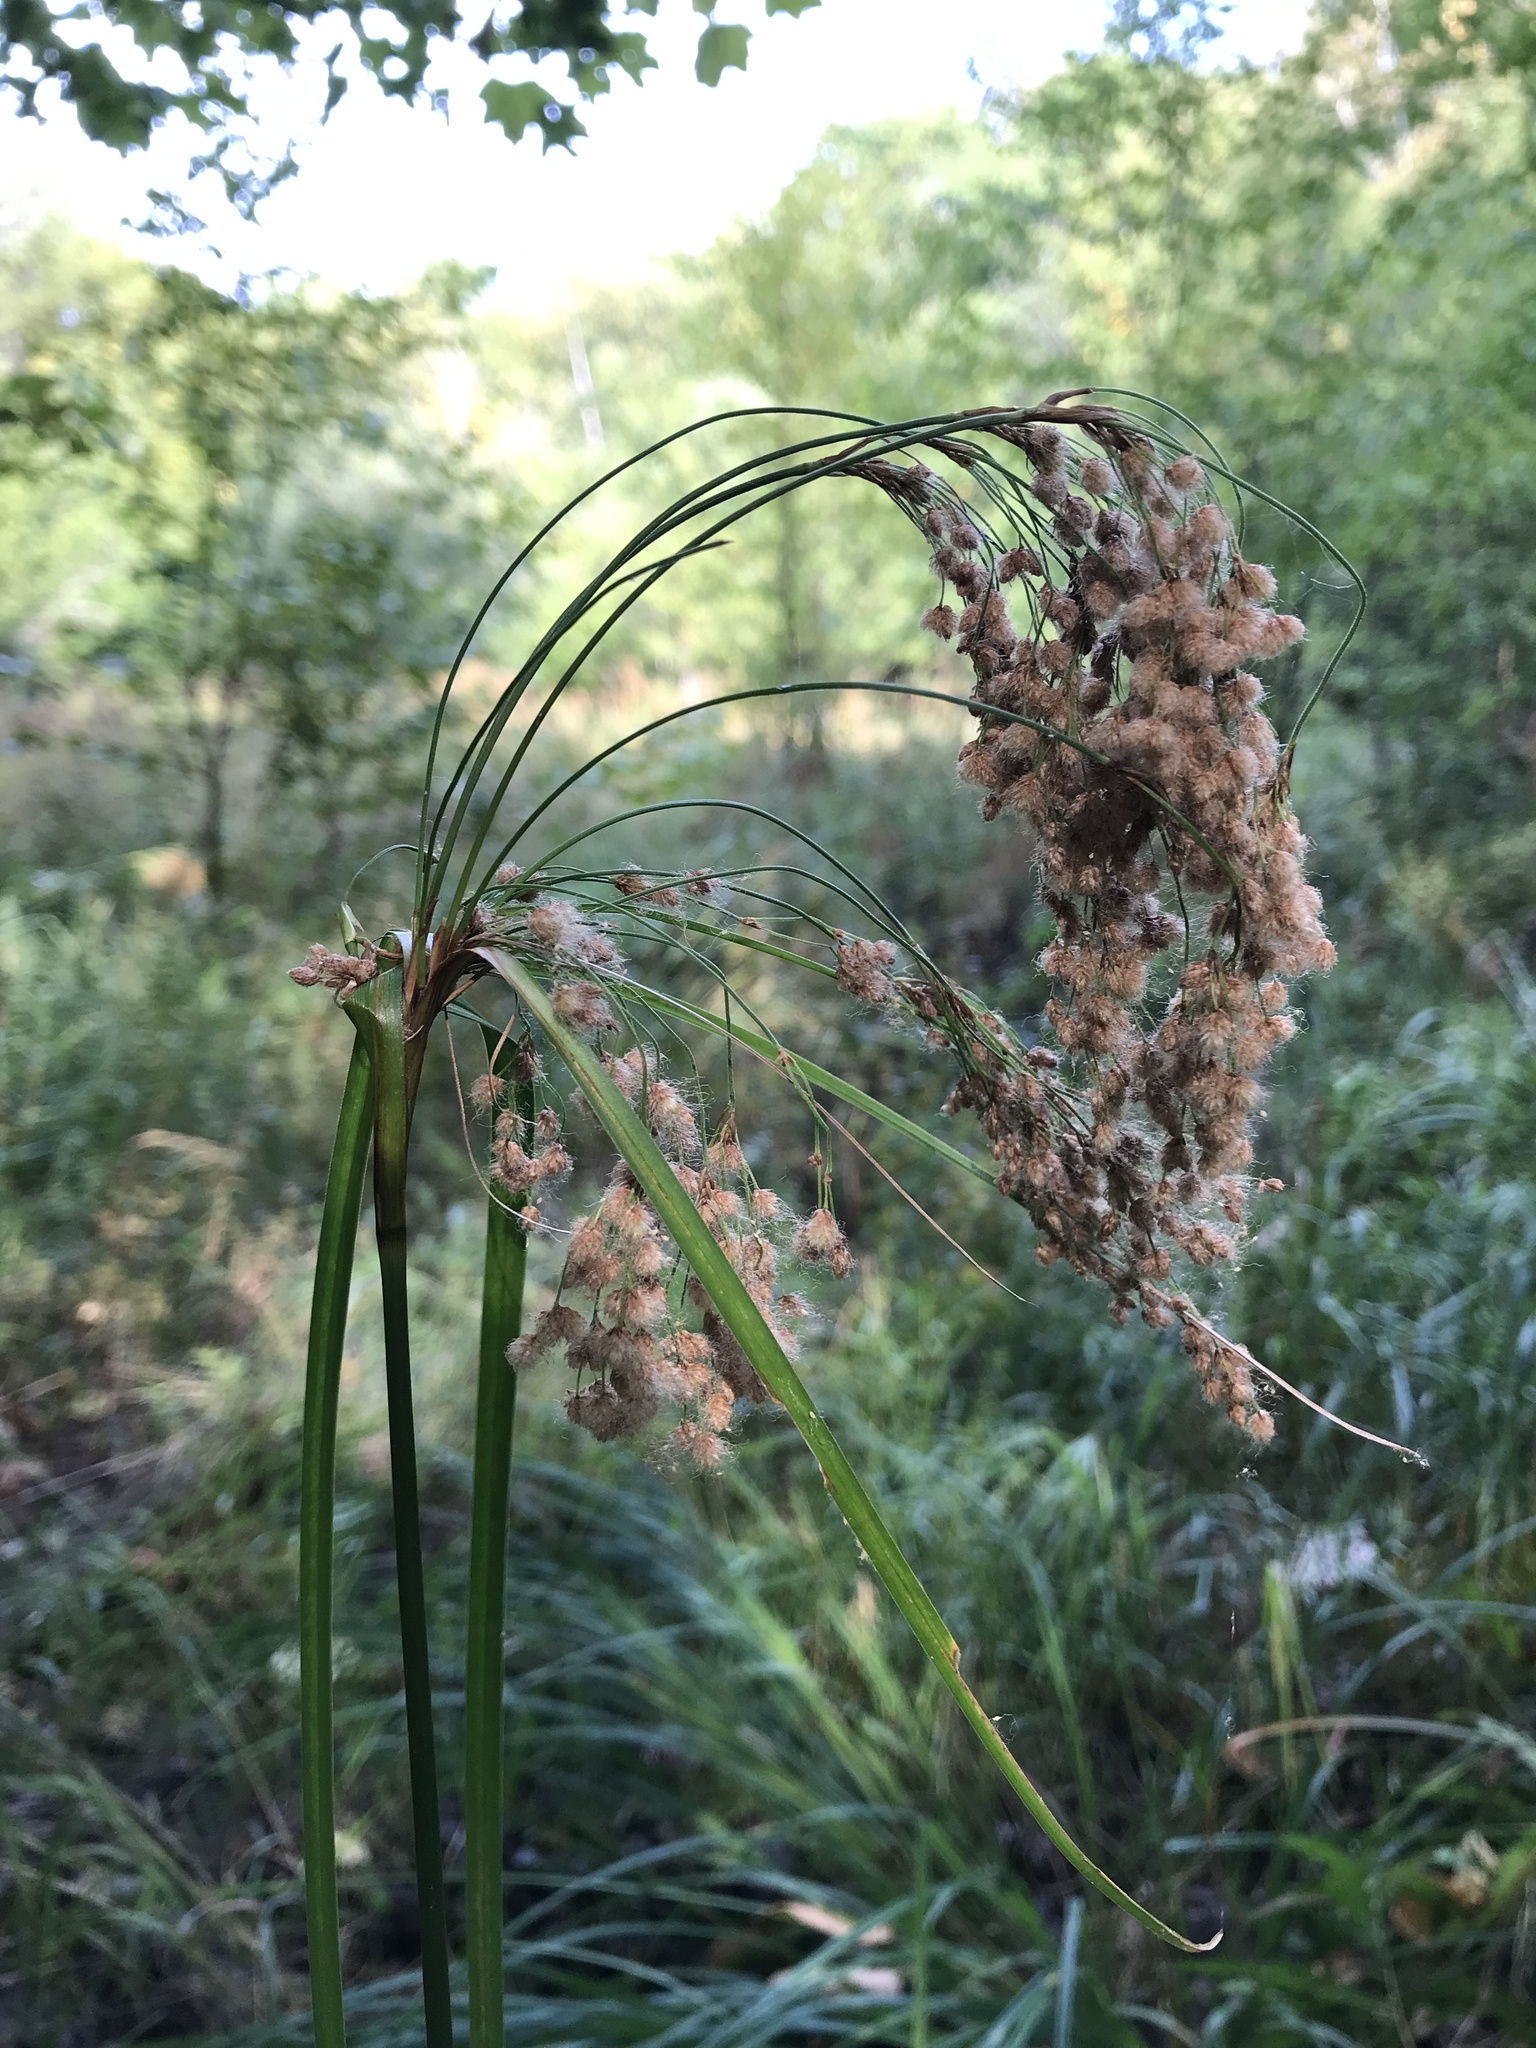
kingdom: Plantae
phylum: Tracheophyta
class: Liliopsida
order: Poales
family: Cyperaceae
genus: Scirpus
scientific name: Scirpus cyperinus
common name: Black-sheathed bulrush
